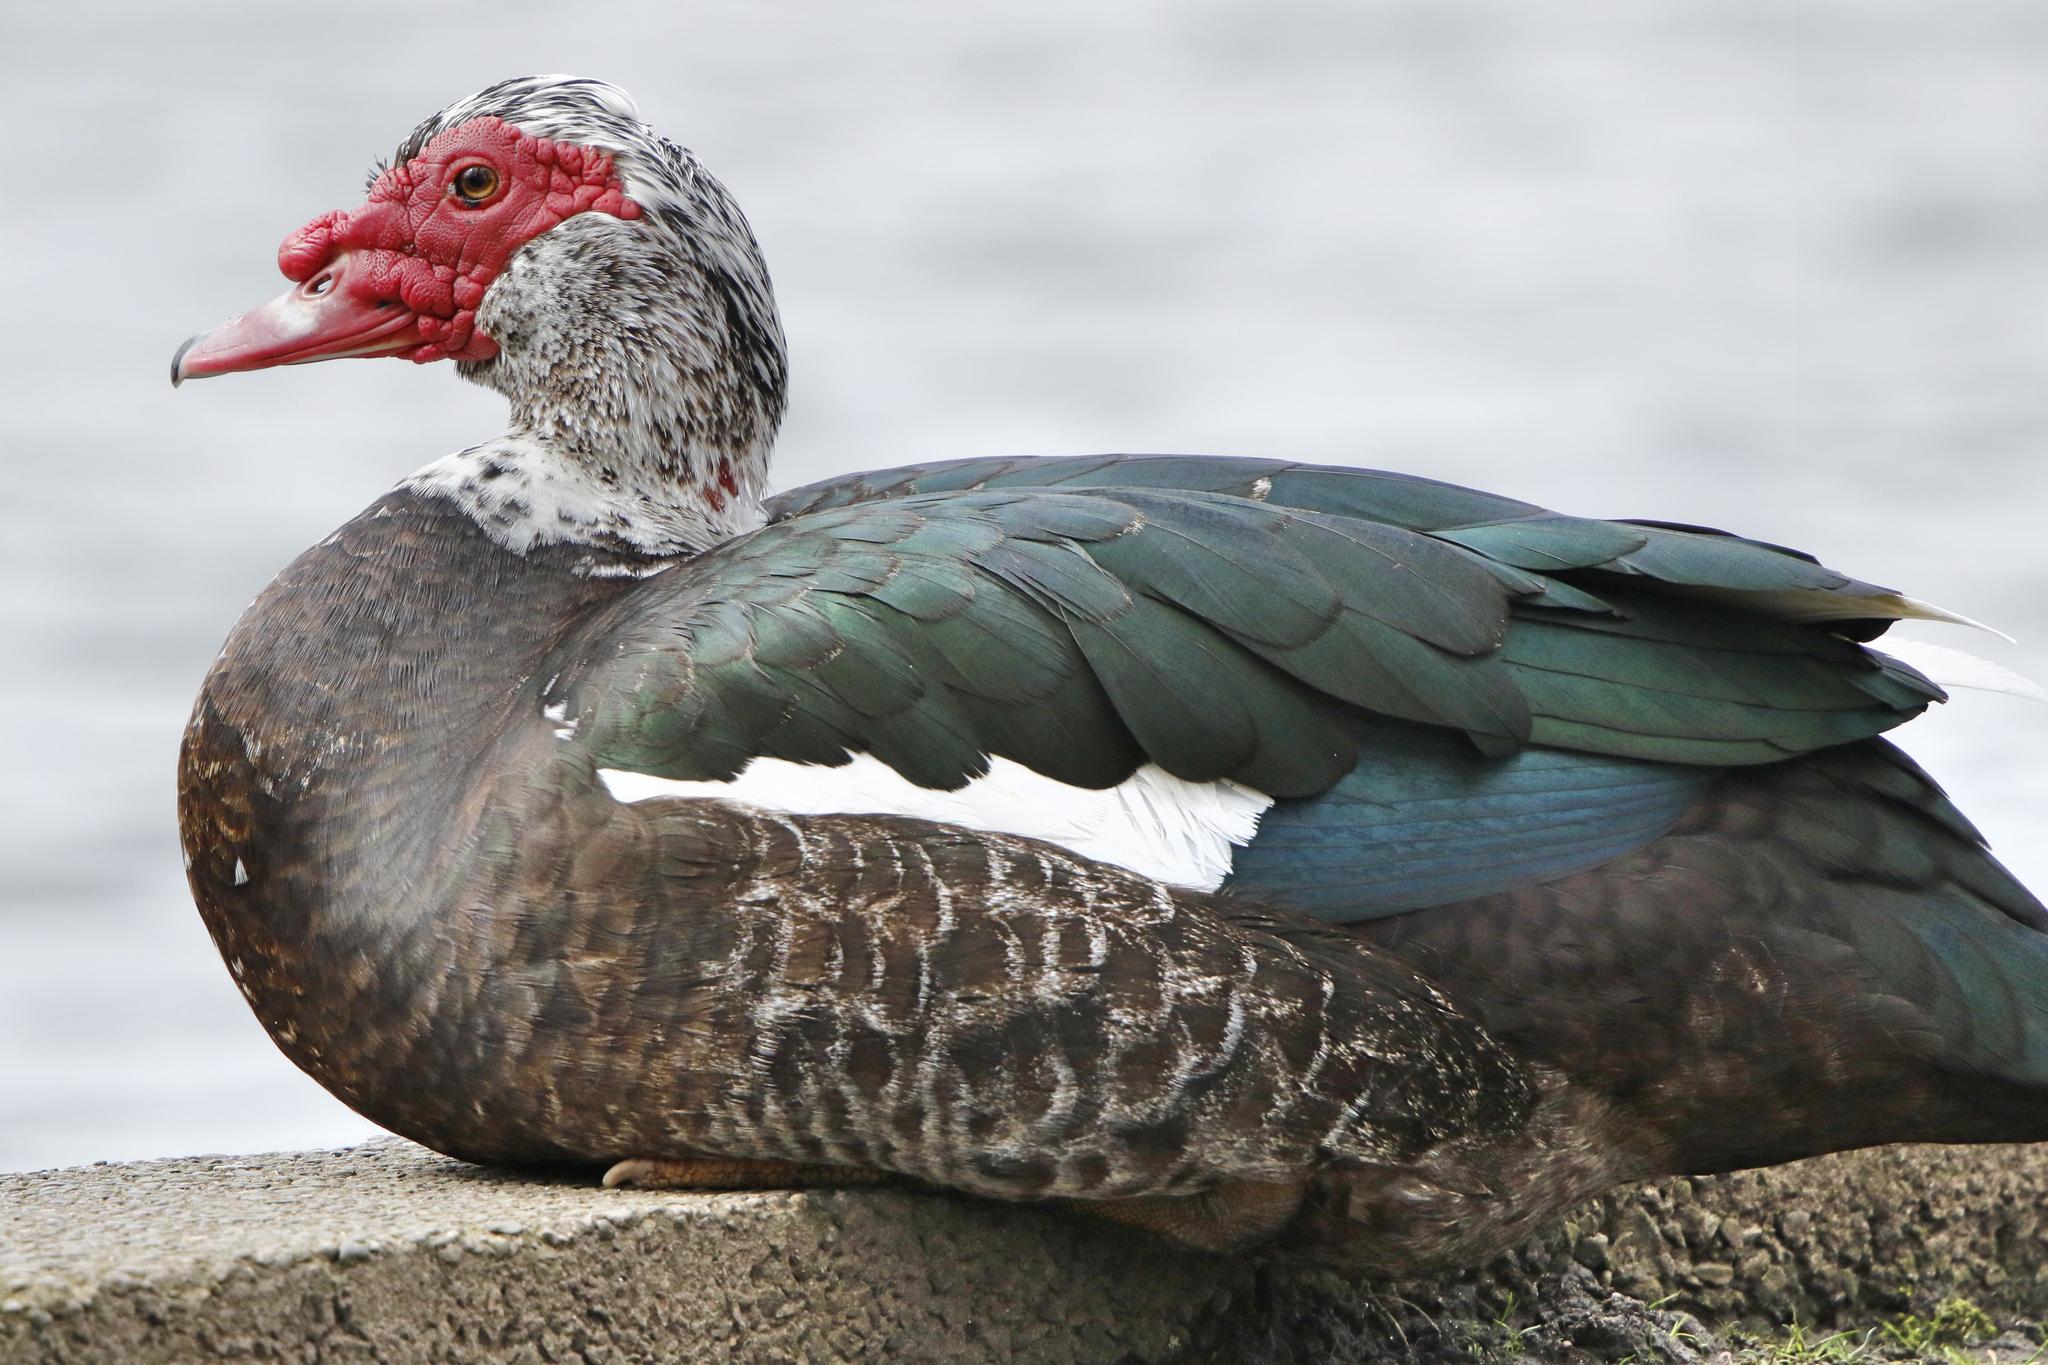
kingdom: Animalia
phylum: Chordata
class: Aves
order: Anseriformes
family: Anatidae
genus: Cairina
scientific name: Cairina moschata
